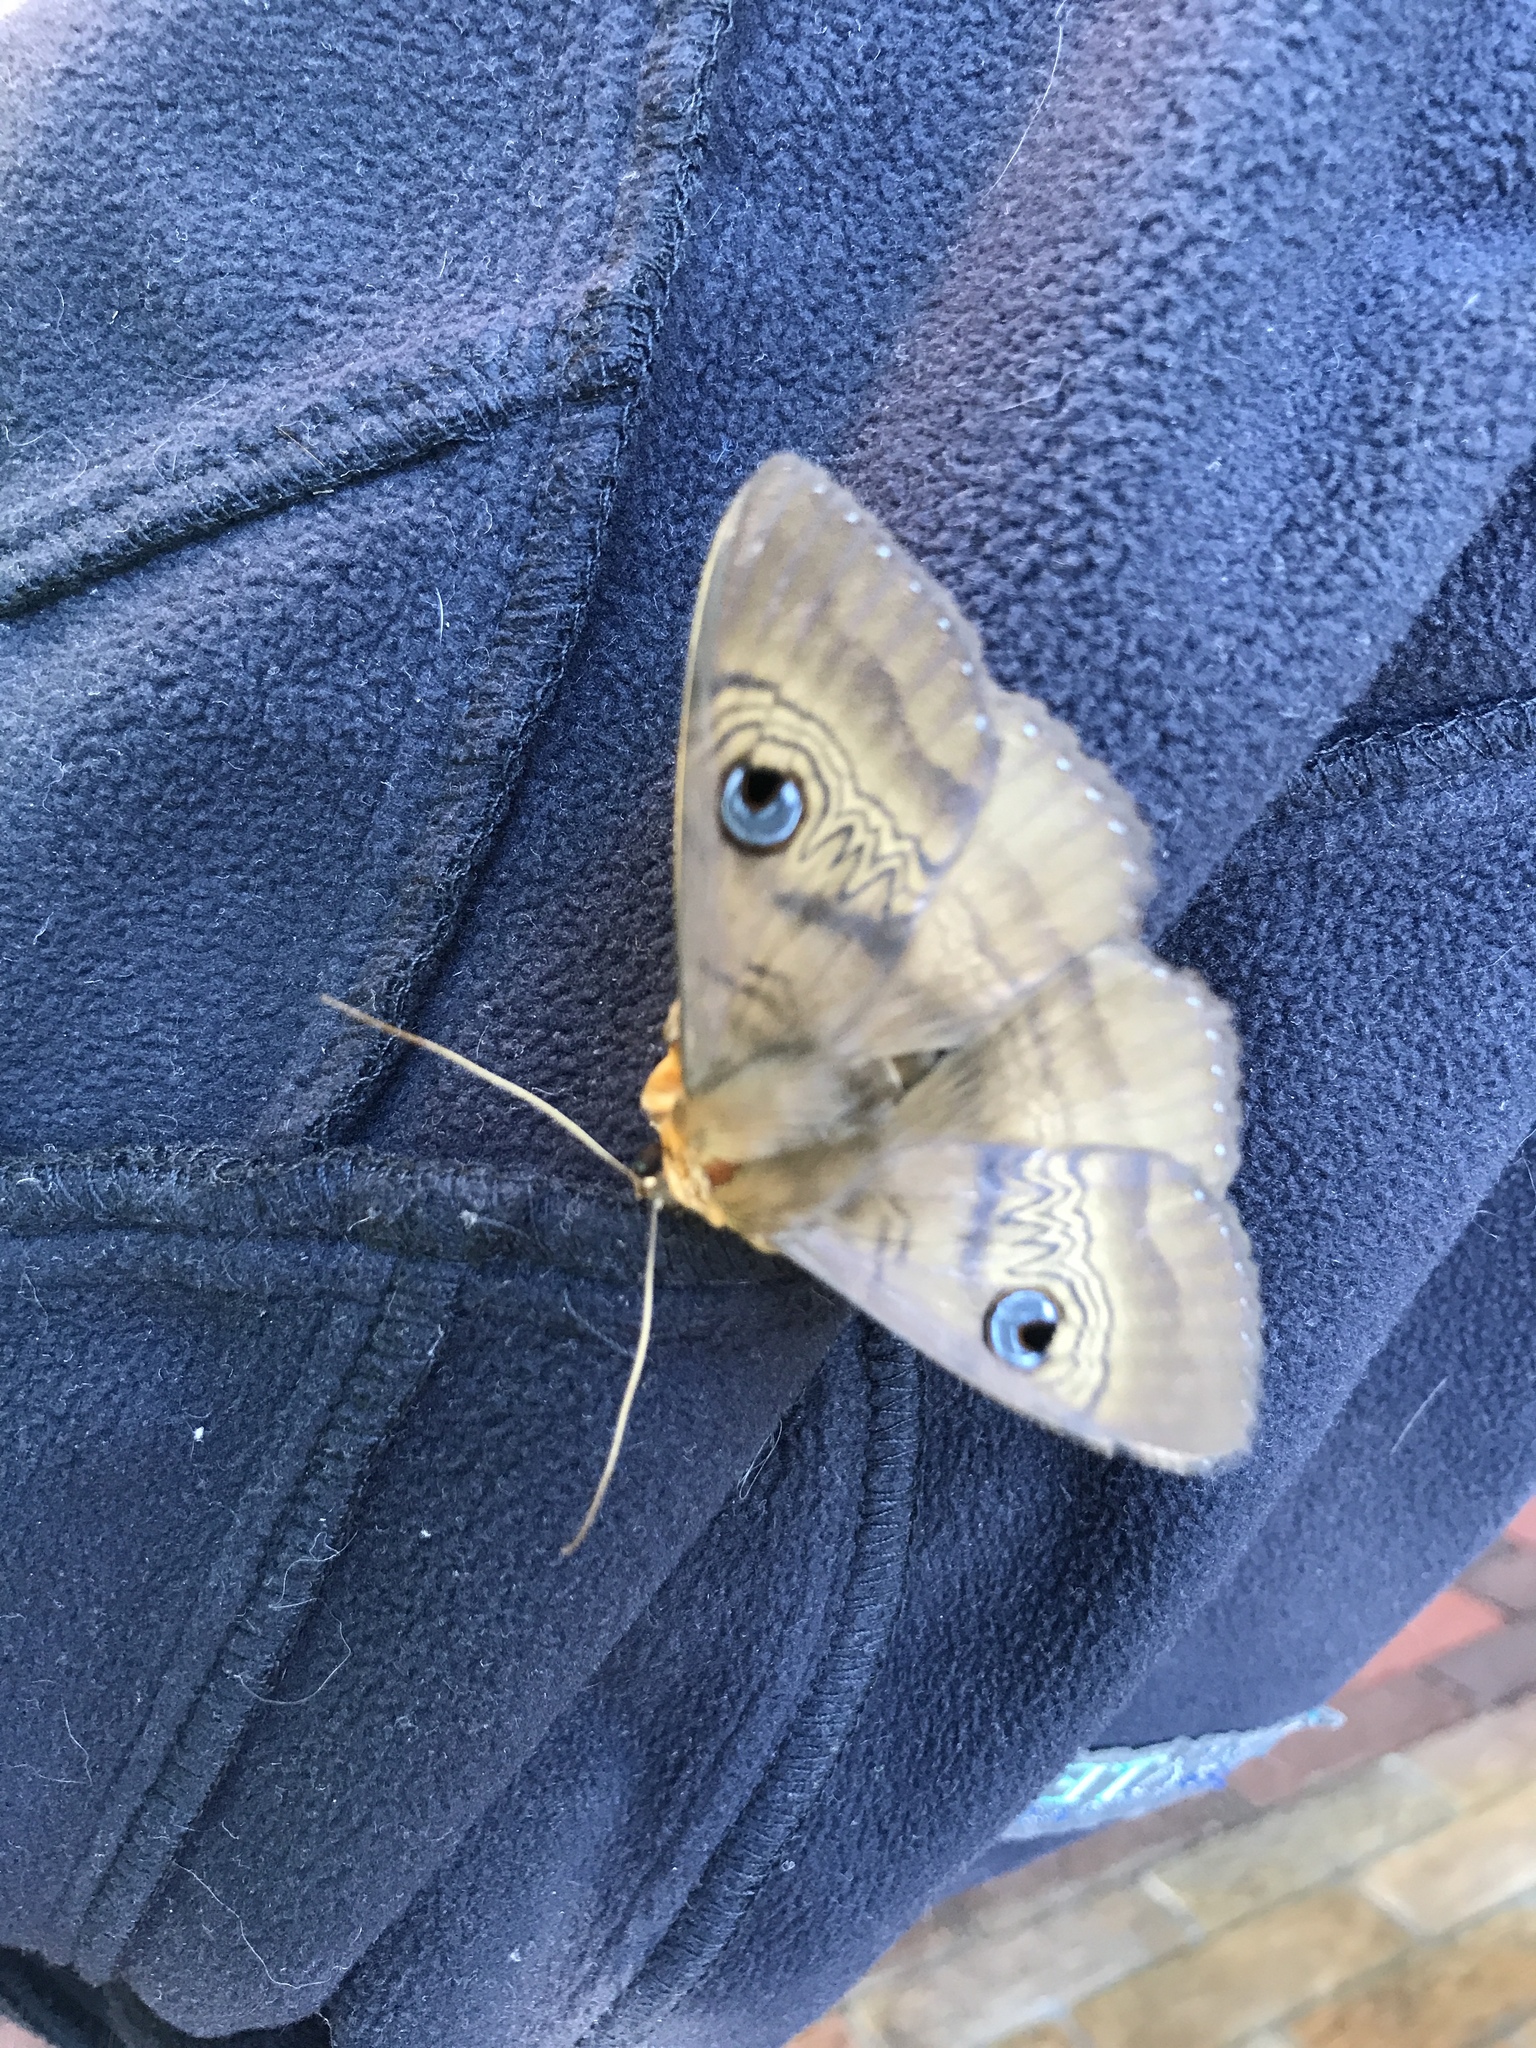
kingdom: Animalia
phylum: Arthropoda
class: Insecta
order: Lepidoptera
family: Erebidae
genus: Dasypodia
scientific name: Dasypodia selenophora
